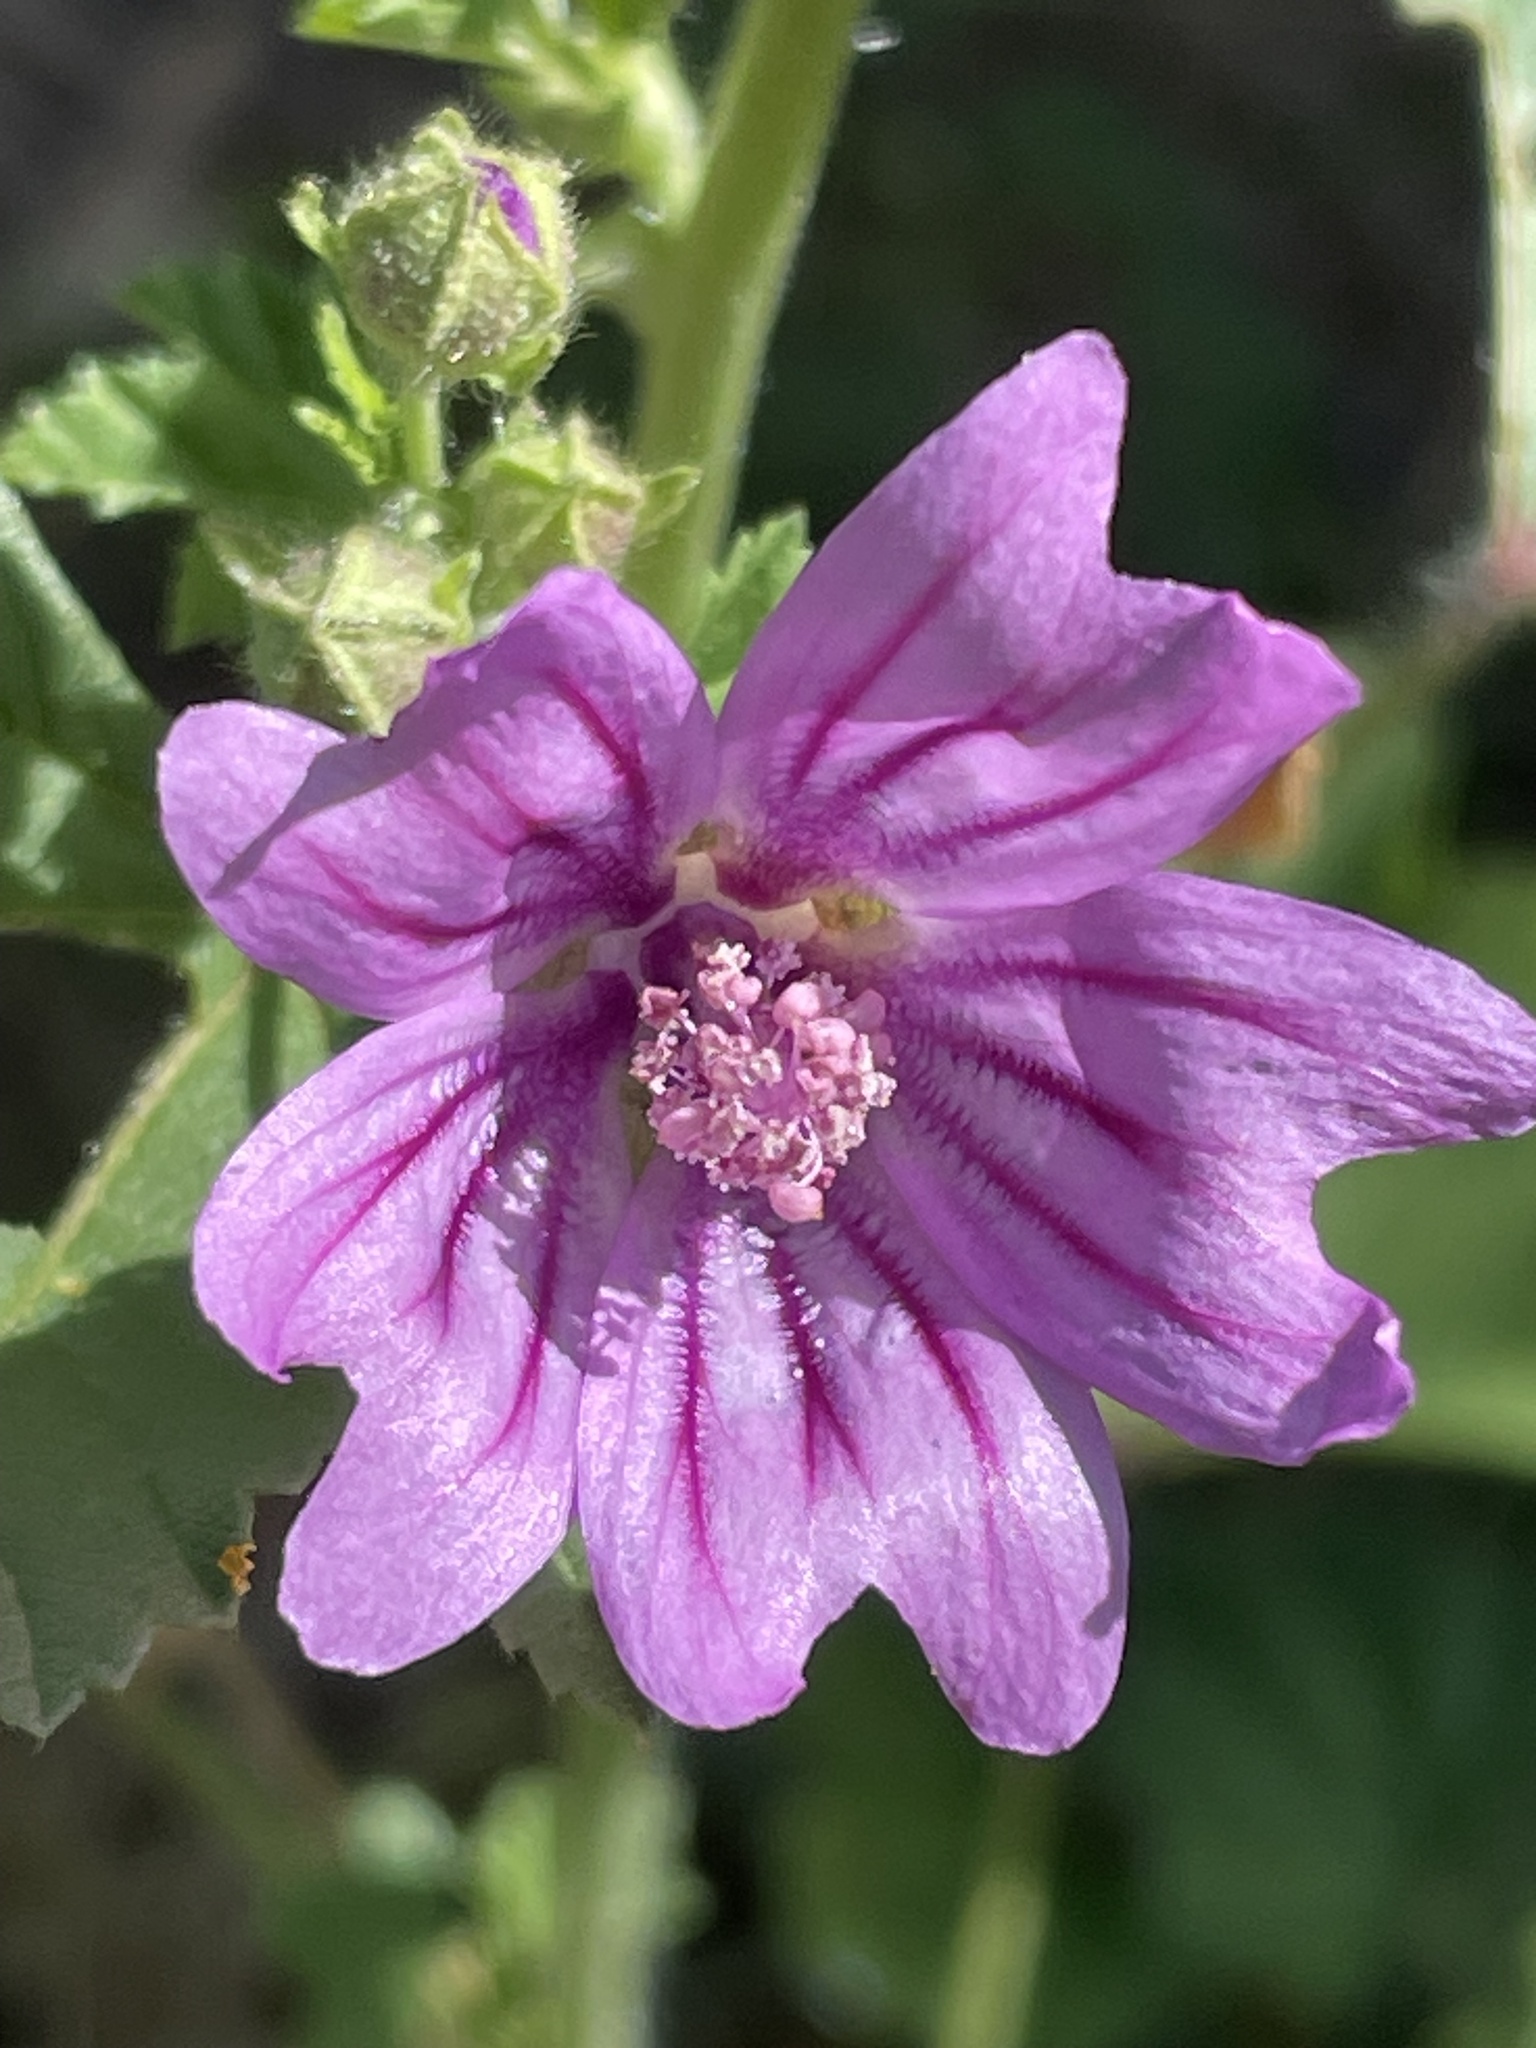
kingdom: Plantae
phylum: Tracheophyta
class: Magnoliopsida
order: Malvales
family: Malvaceae
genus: Malva
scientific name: Malva sylvestris
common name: Common mallow
